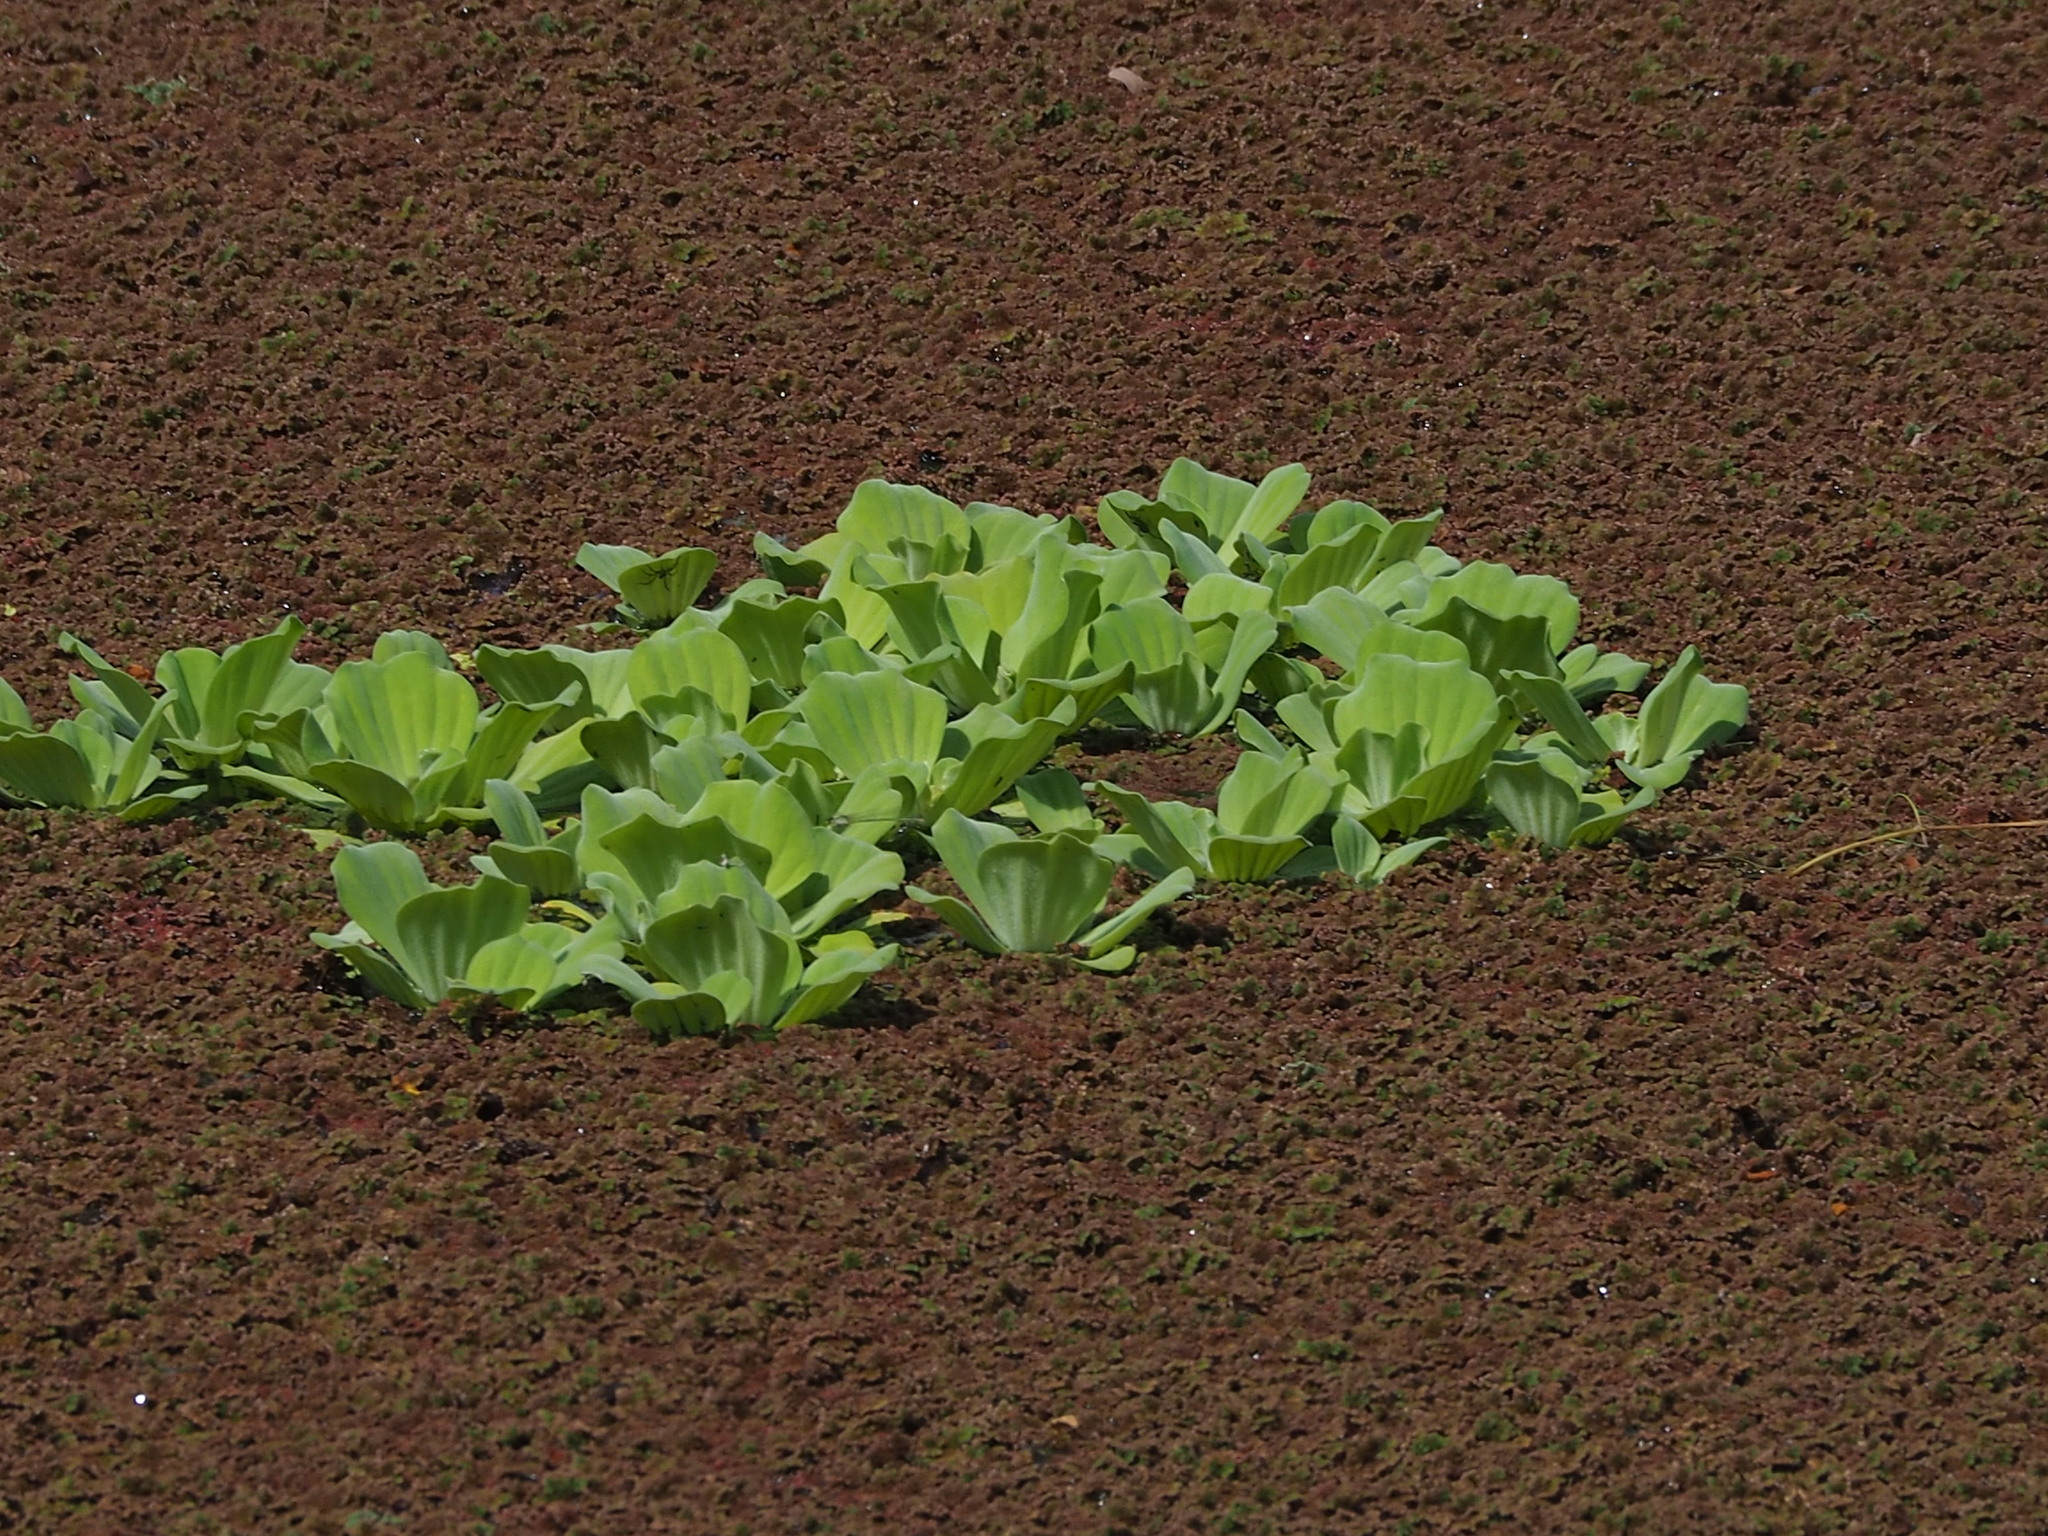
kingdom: Plantae
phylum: Tracheophyta
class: Liliopsida
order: Alismatales
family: Araceae
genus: Pistia
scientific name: Pistia stratiotes
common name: Water lettuce
